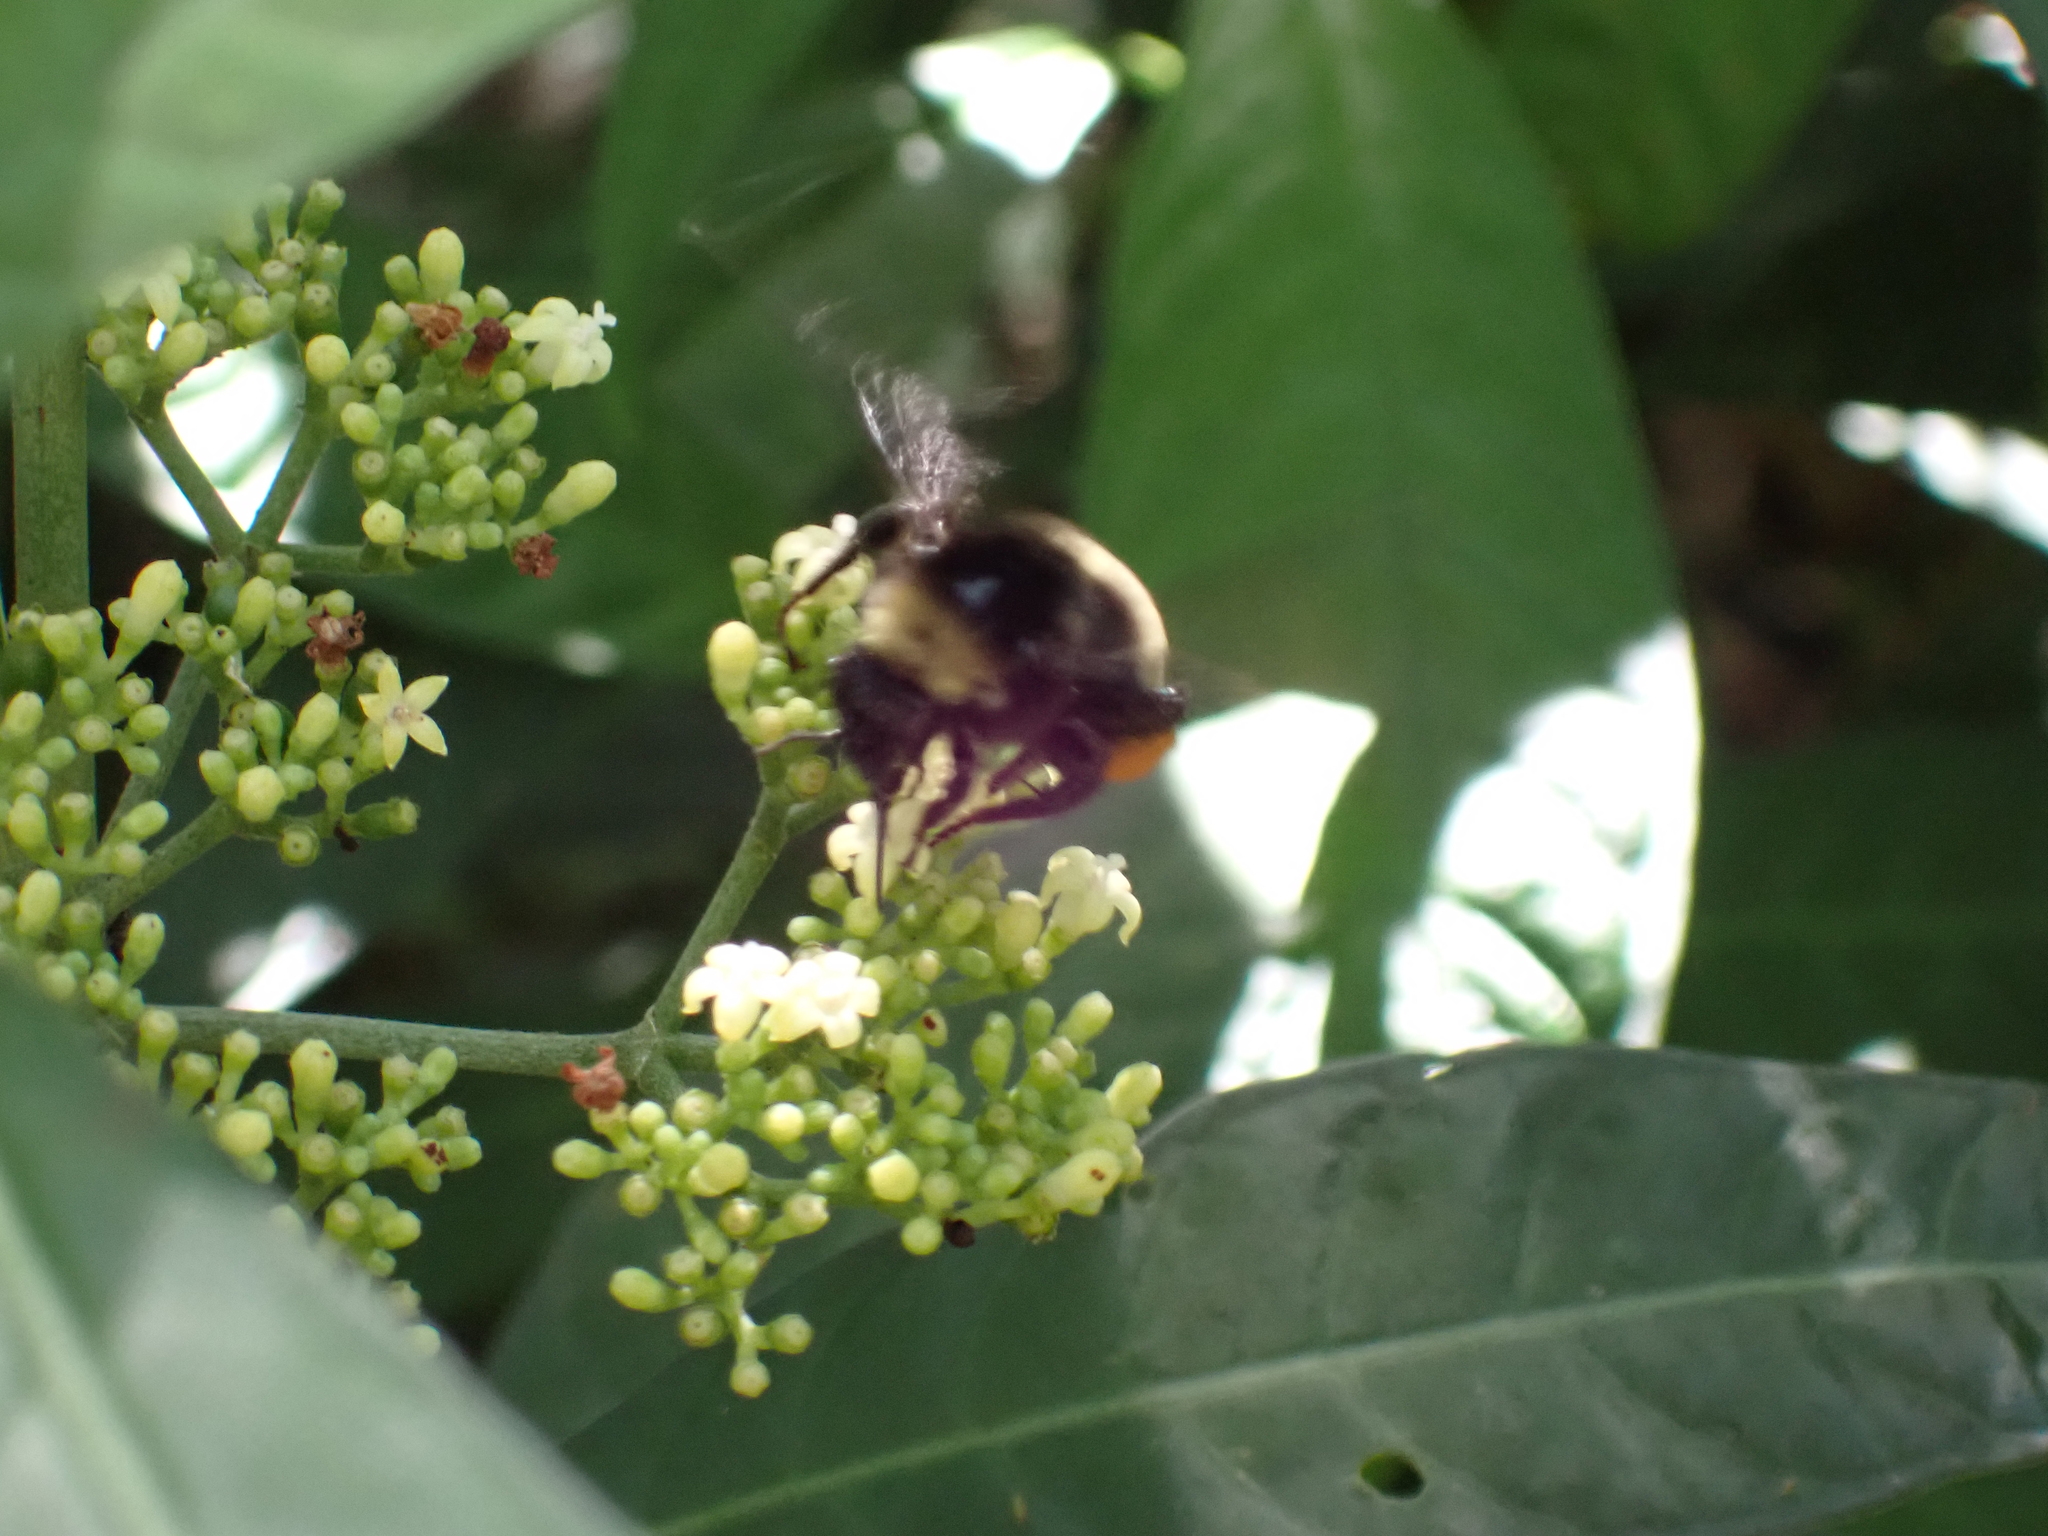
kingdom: Animalia
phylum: Arthropoda
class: Insecta
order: Hymenoptera
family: Apidae
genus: Bombus
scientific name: Bombus pensylvanicus
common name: Bumble bee
